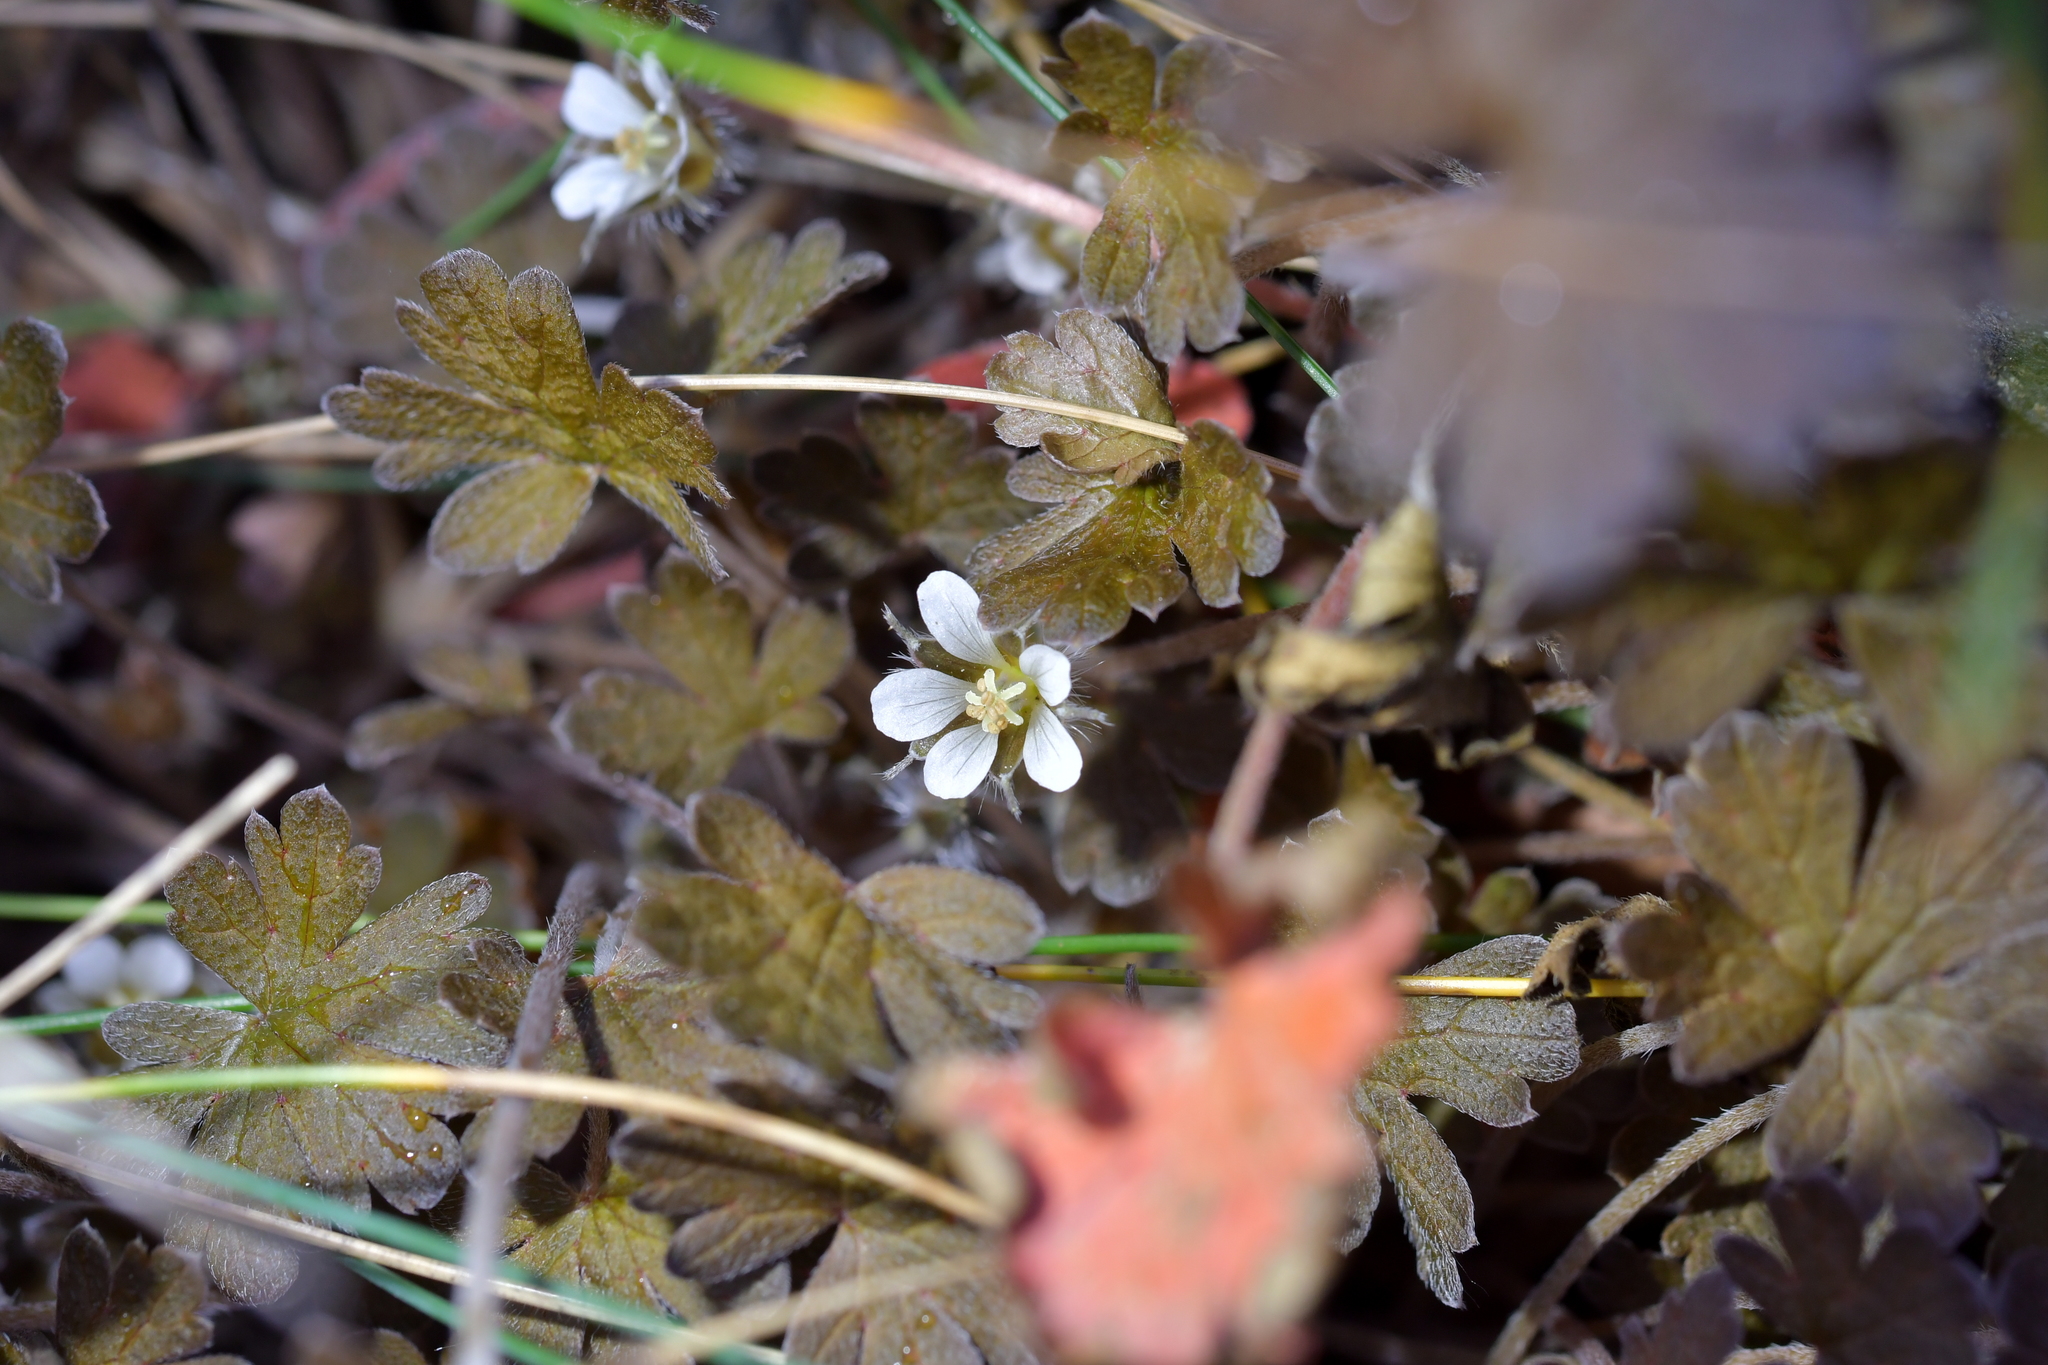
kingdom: Plantae
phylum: Tracheophyta
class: Magnoliopsida
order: Geraniales
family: Geraniaceae
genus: Geranium
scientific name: Geranium brevicaule
